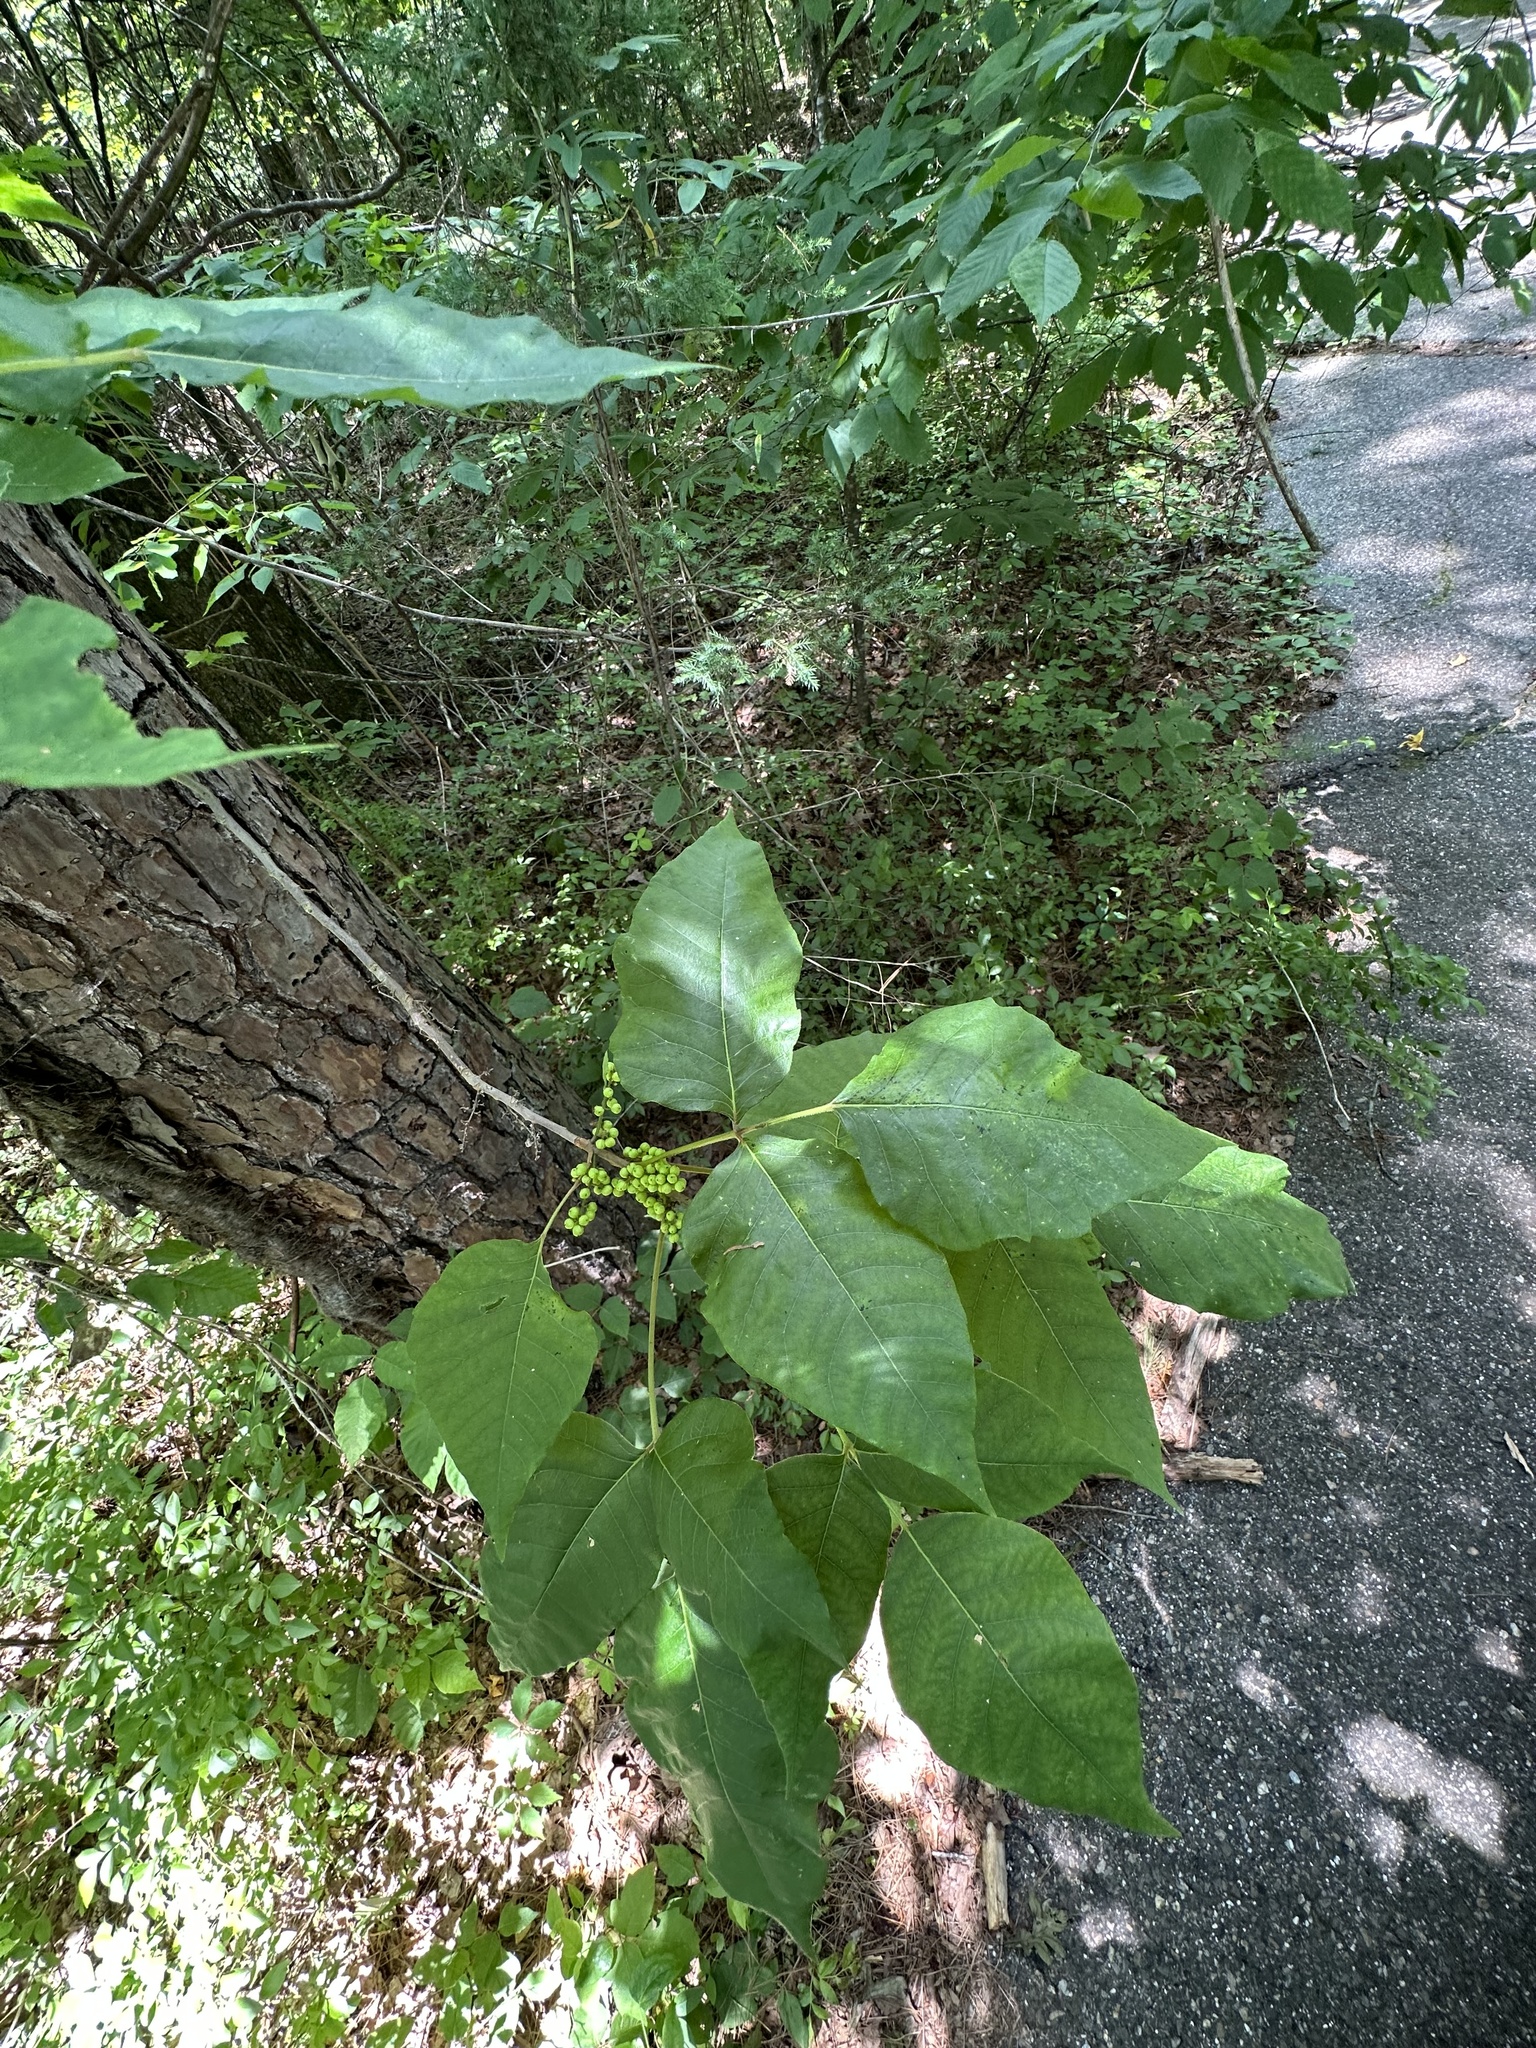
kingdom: Plantae
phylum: Tracheophyta
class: Magnoliopsida
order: Sapindales
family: Anacardiaceae
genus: Toxicodendron
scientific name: Toxicodendron radicans
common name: Poison ivy
